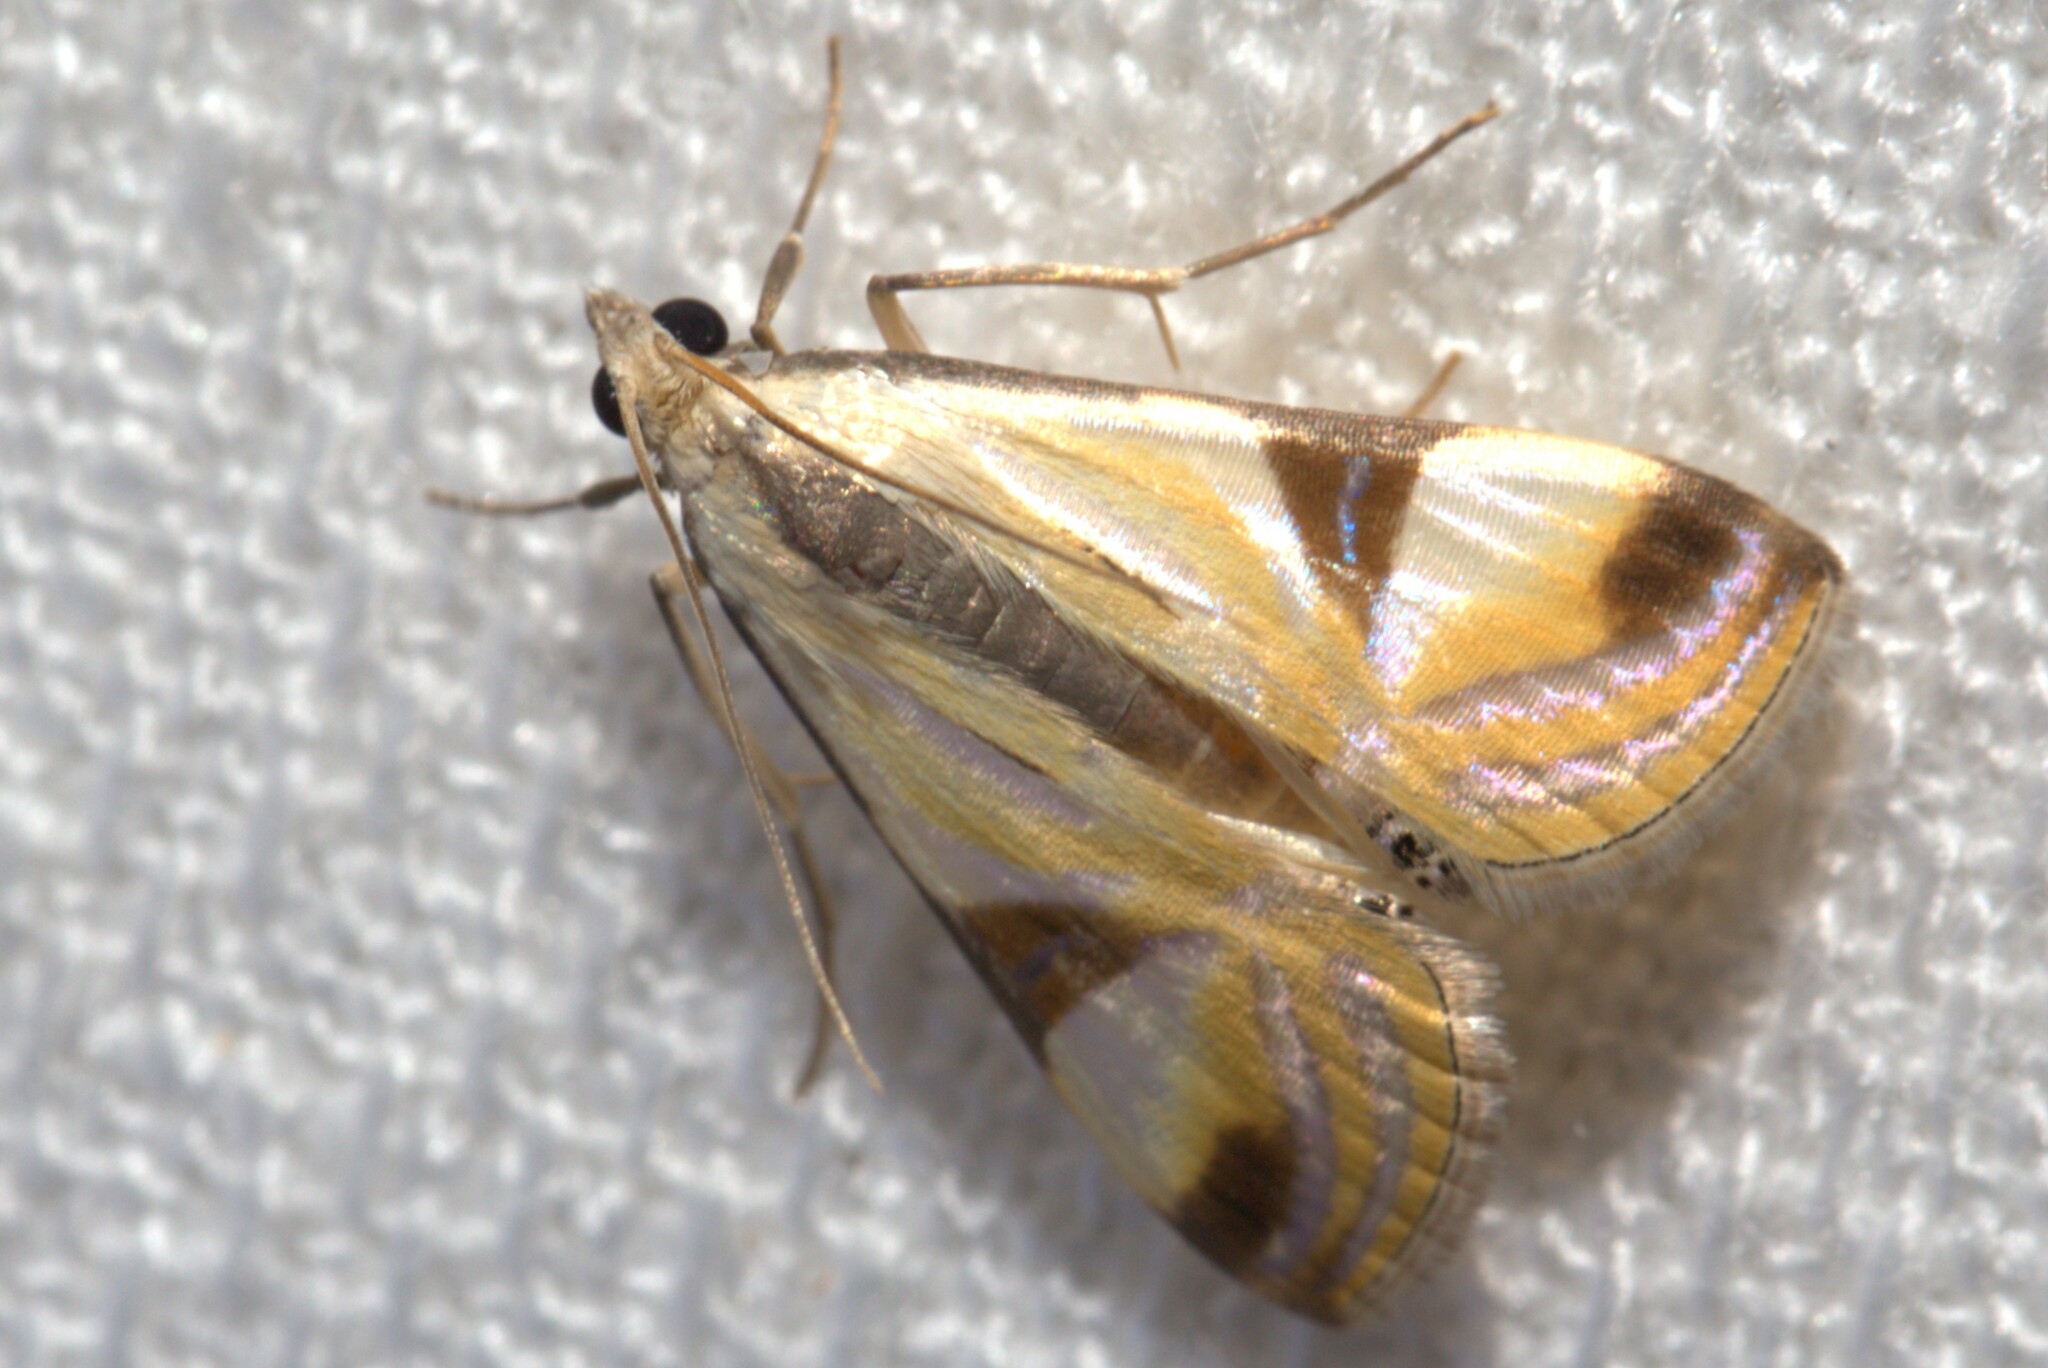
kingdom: Animalia
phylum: Arthropoda
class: Insecta
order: Lepidoptera
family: Crambidae
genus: Talanga
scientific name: Talanga tolumnialis
